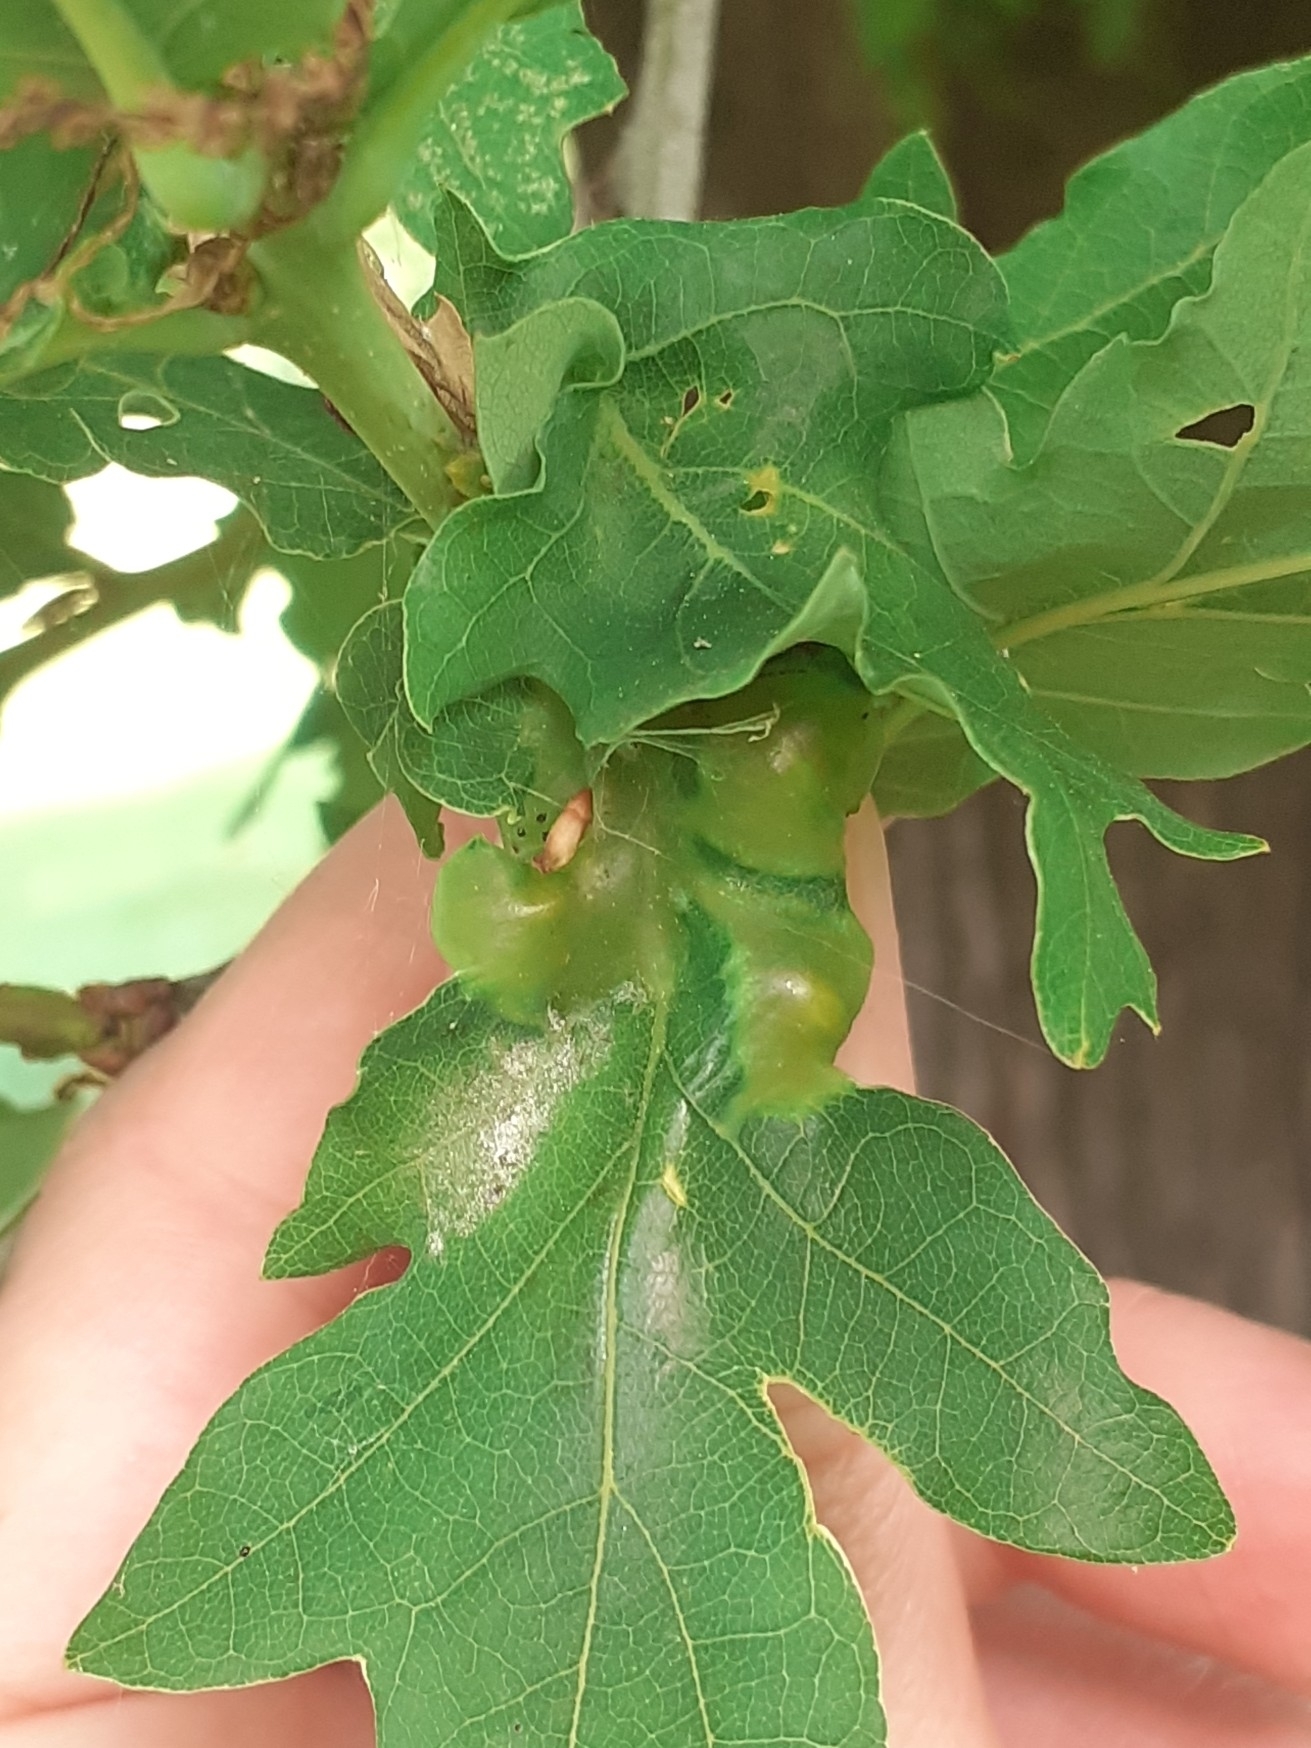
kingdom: Animalia
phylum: Arthropoda
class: Insecta
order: Hymenoptera
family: Cynipidae
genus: Andricus
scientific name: Andricus curvator
